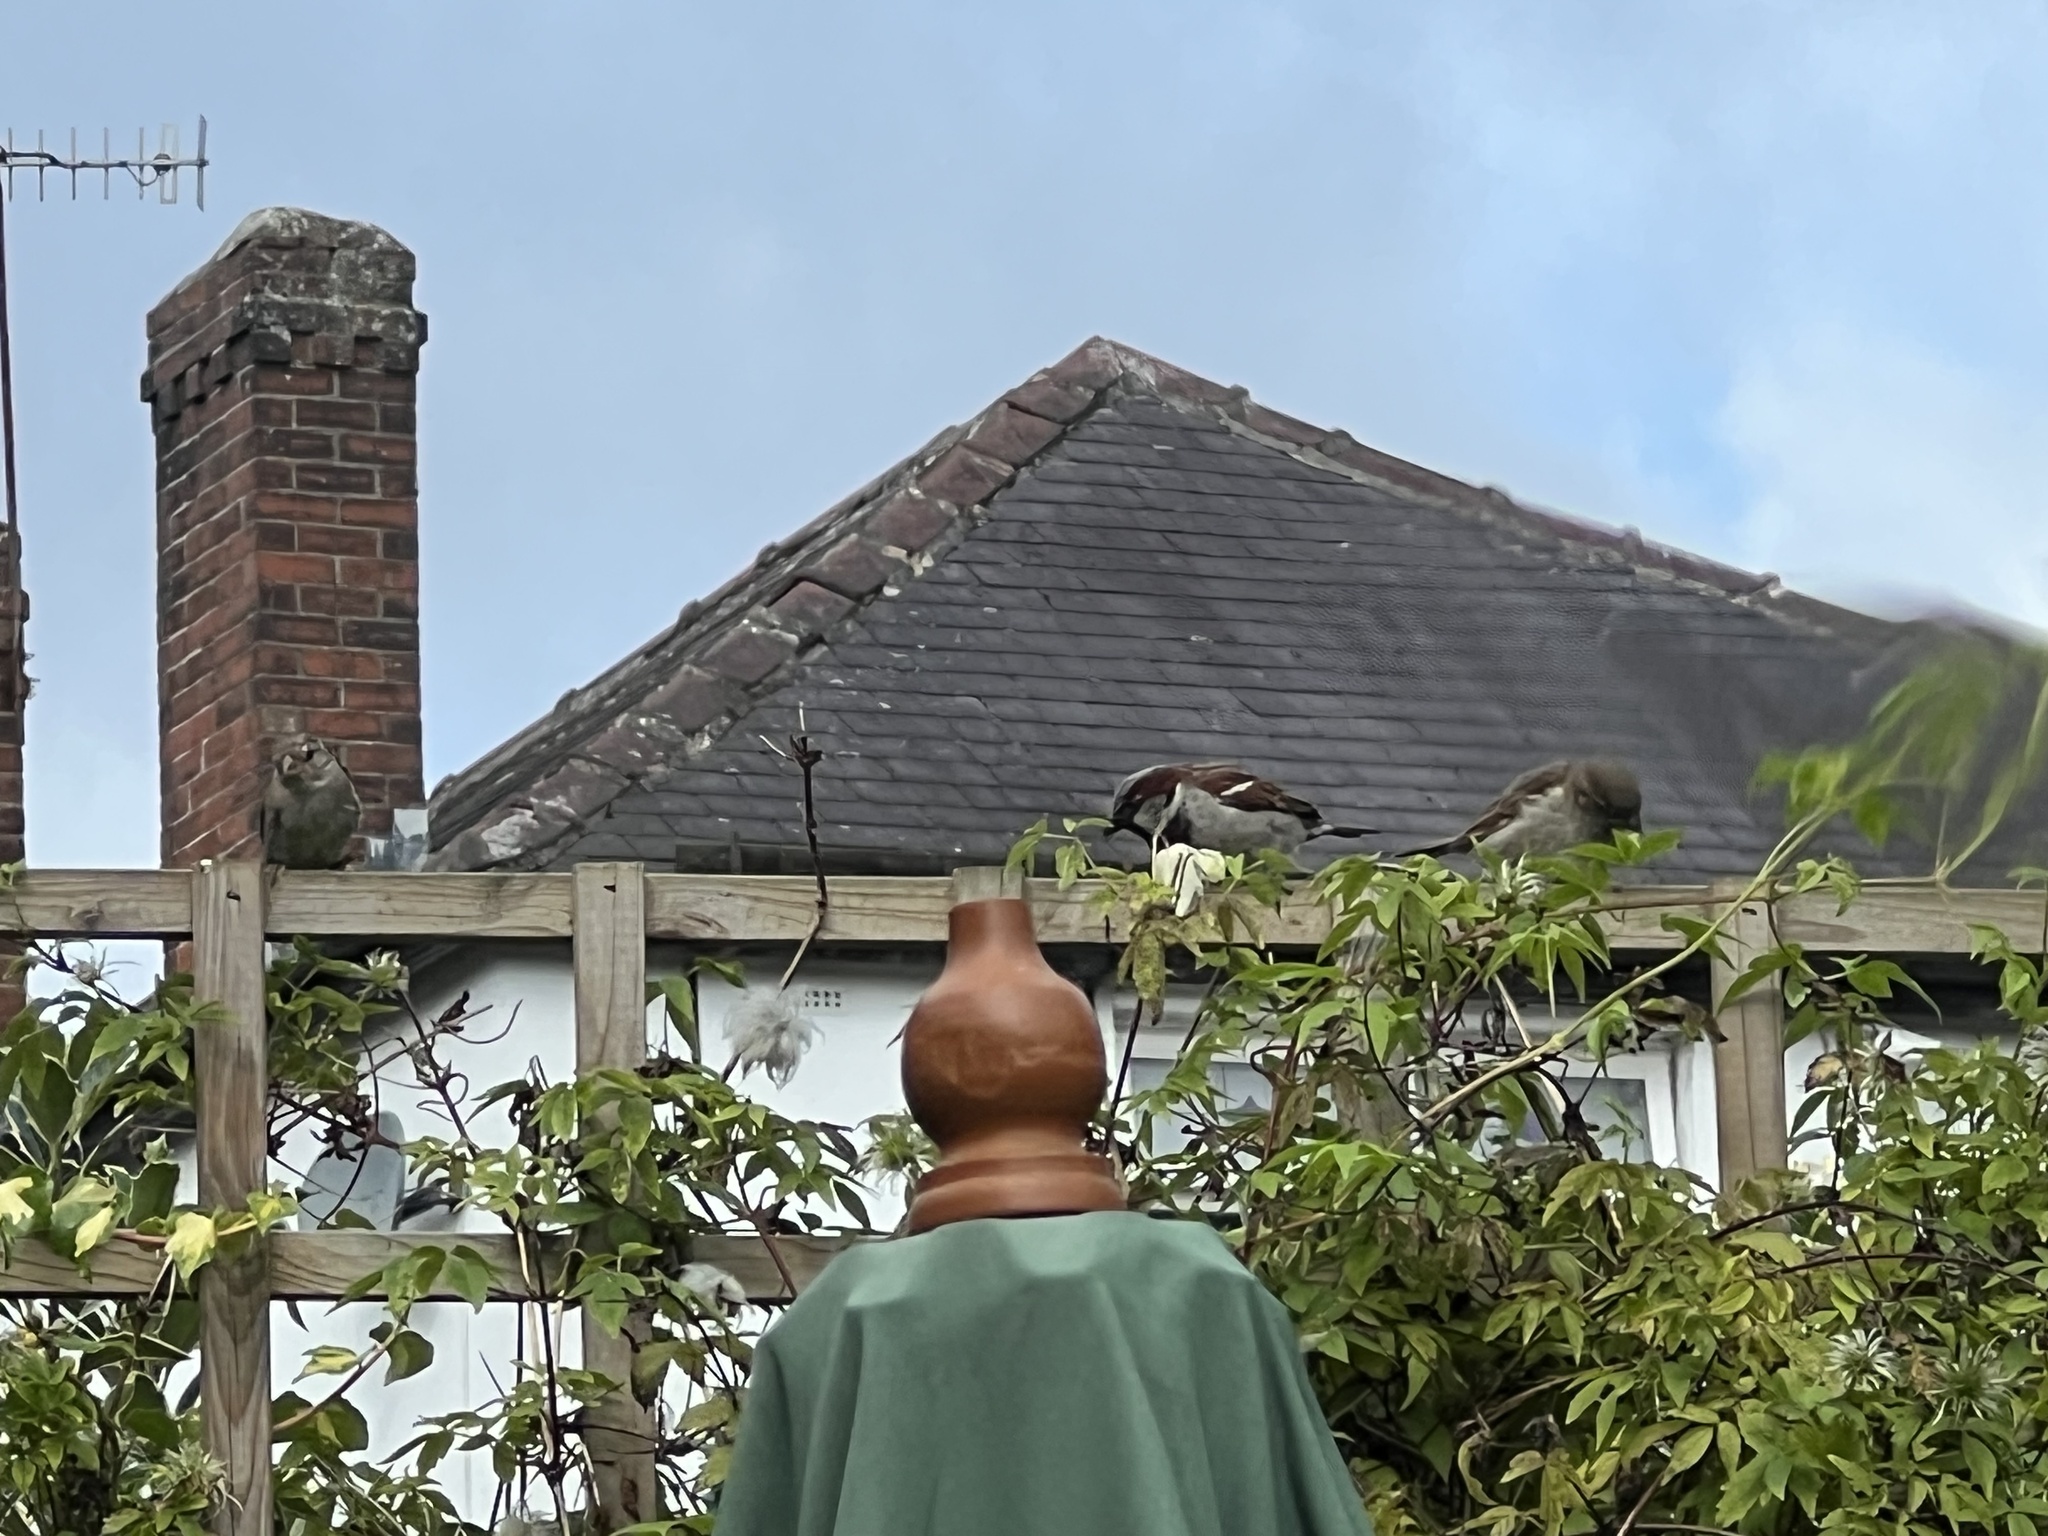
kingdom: Animalia
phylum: Chordata
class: Aves
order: Passeriformes
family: Passeridae
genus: Passer
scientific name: Passer domesticus
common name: House sparrow
